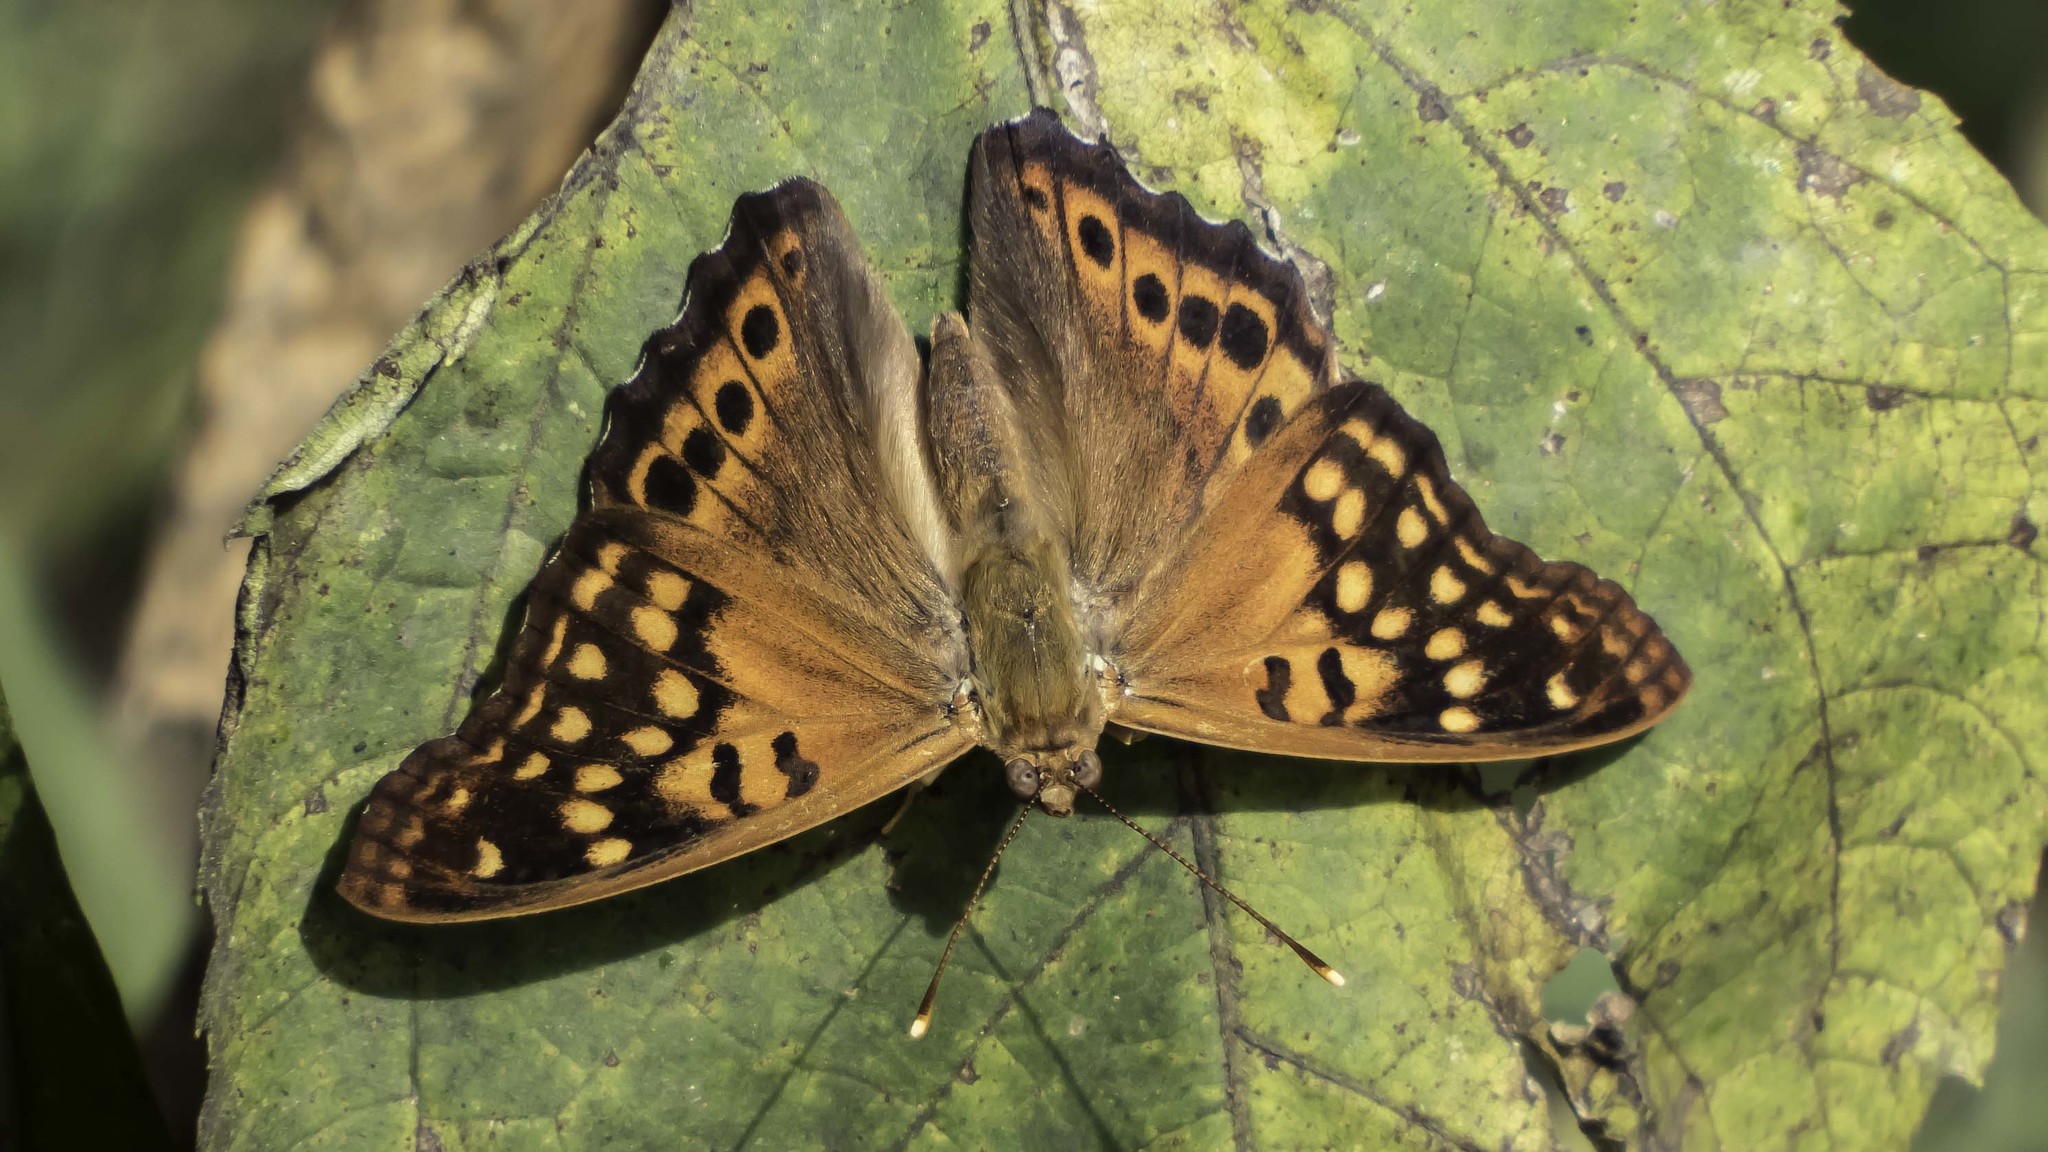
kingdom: Animalia
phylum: Arthropoda
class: Insecta
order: Lepidoptera
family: Nymphalidae
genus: Asterocampa
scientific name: Asterocampa clyton
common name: Tawny emperor
